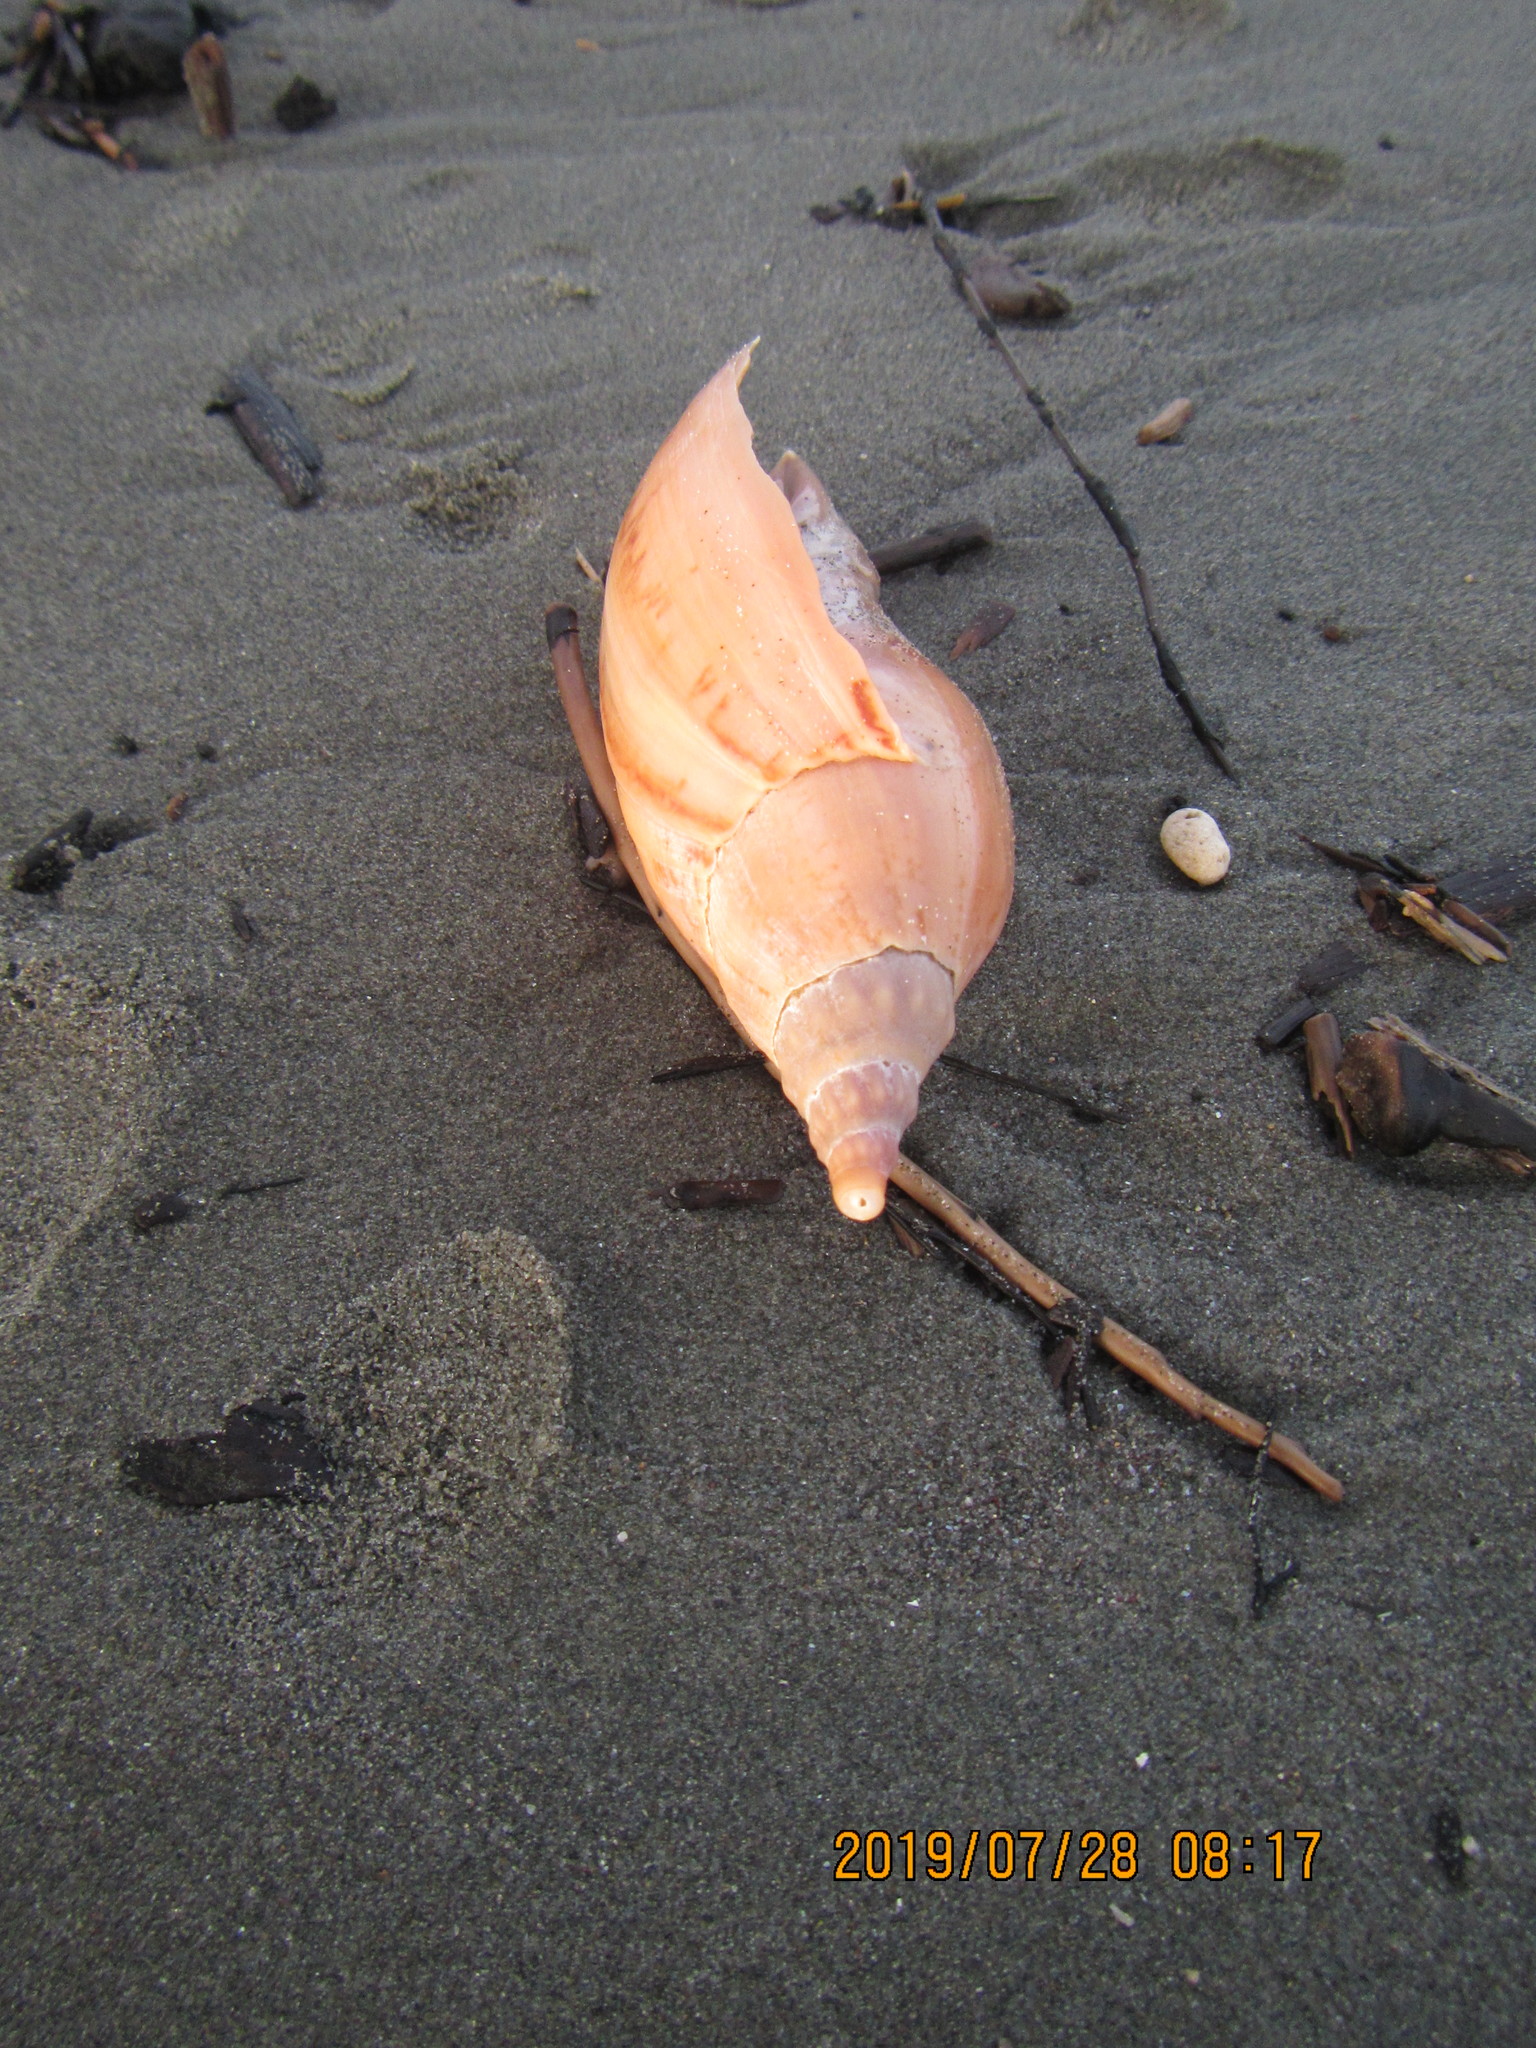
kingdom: Animalia
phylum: Mollusca
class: Gastropoda
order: Neogastropoda
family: Volutidae
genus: Alcithoe
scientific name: Alcithoe arabica
